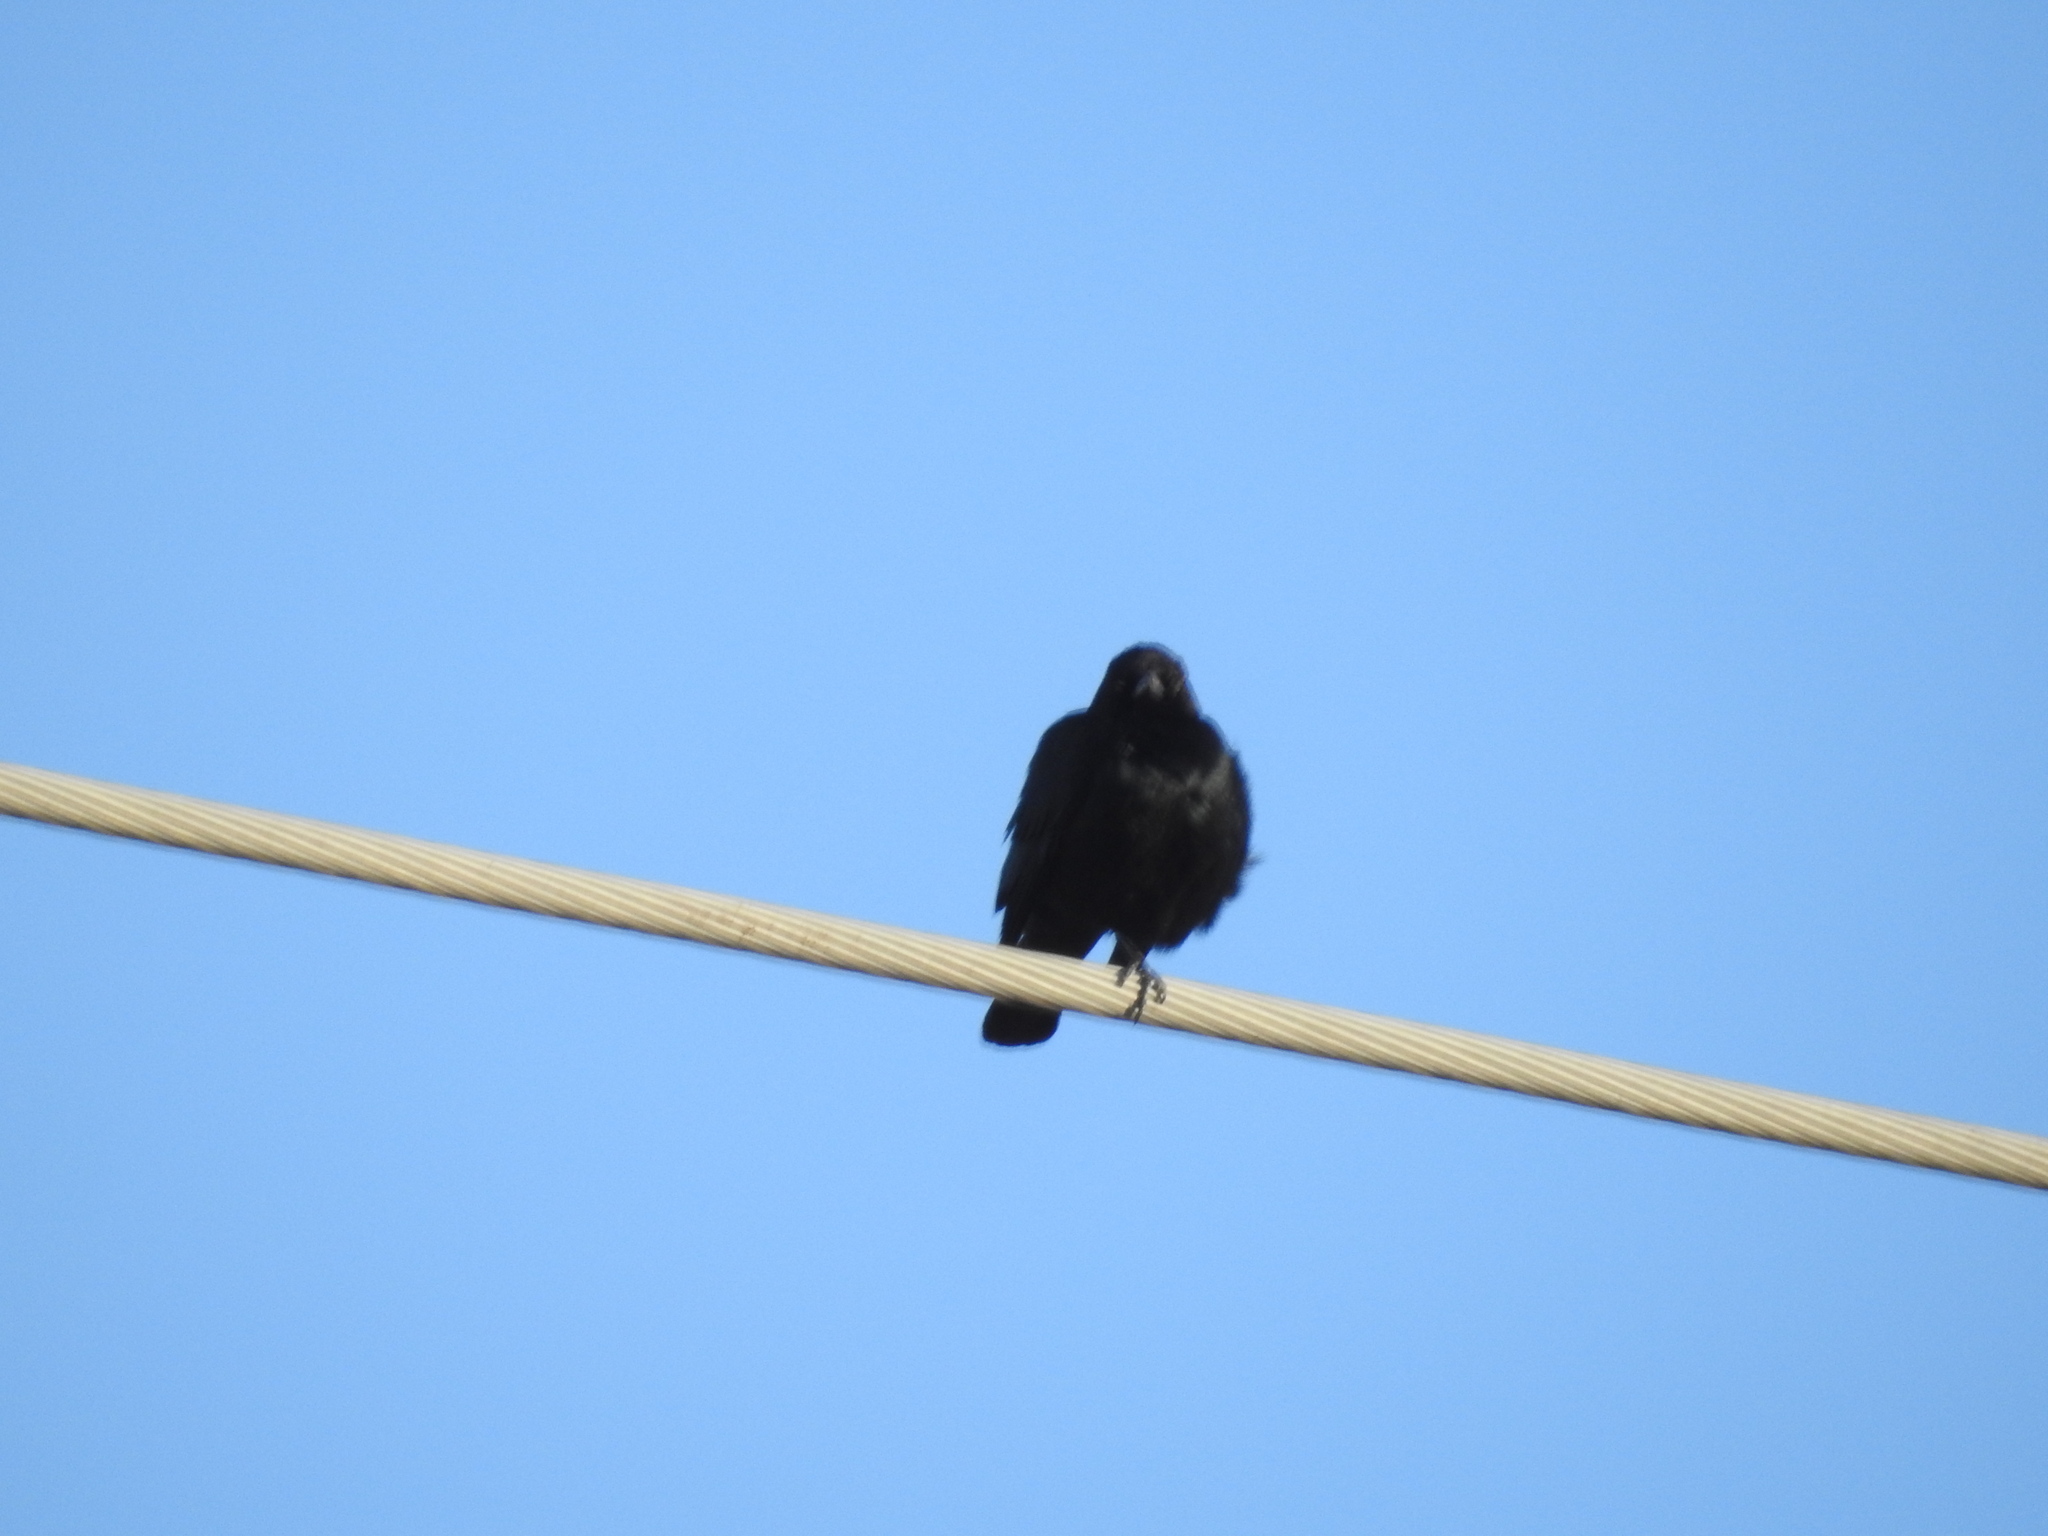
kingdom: Animalia
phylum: Chordata
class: Aves
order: Passeriformes
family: Icteridae
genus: Euphagus
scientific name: Euphagus cyanocephalus
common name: Brewer's blackbird
